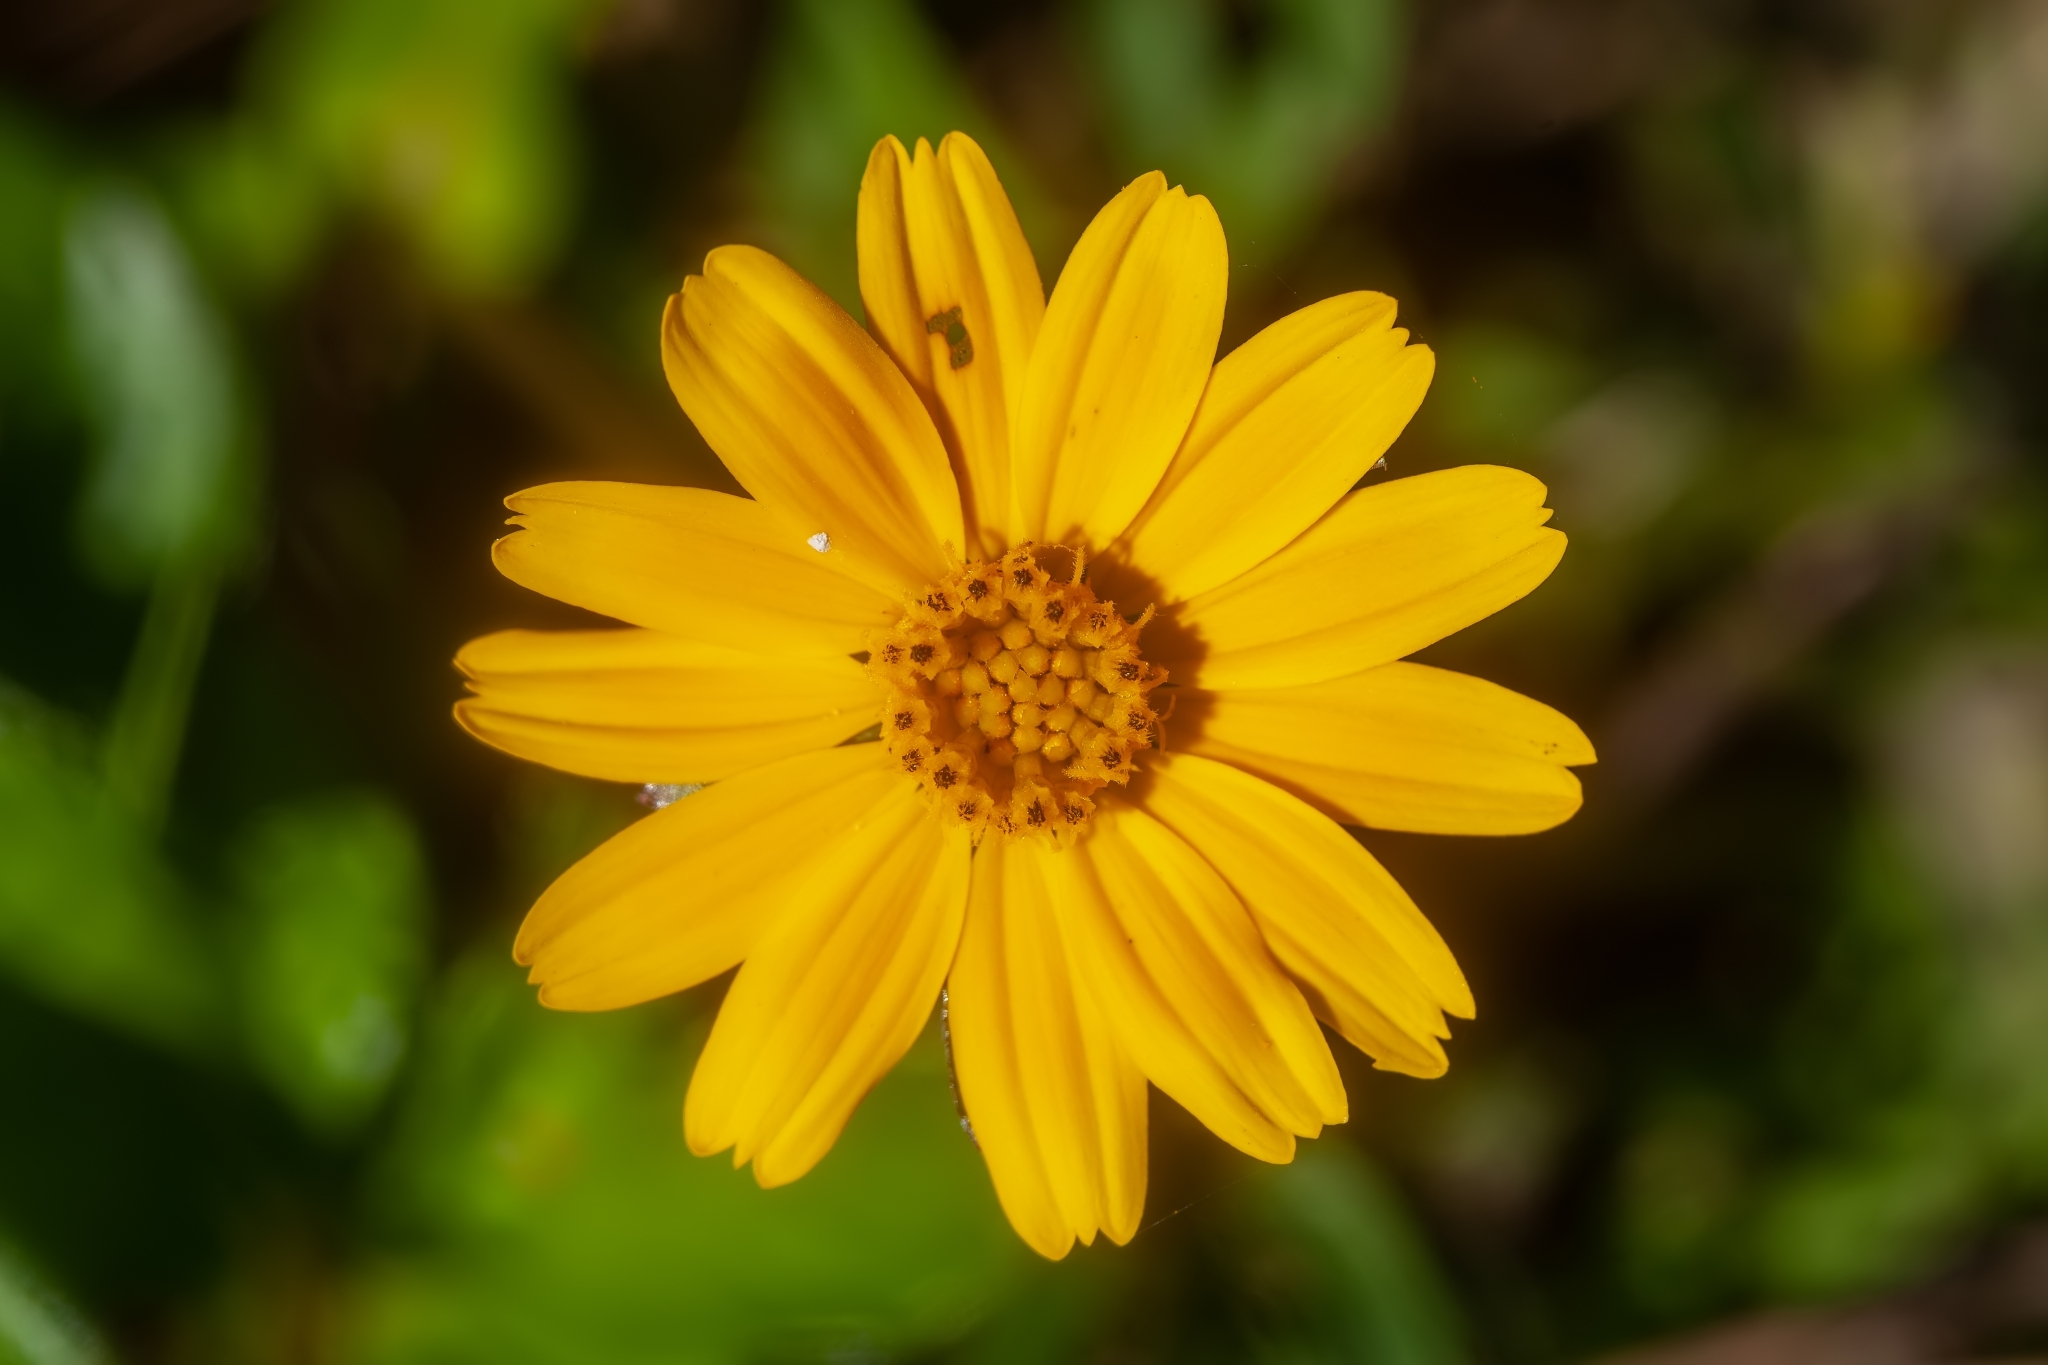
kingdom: Plantae
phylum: Tracheophyta
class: Magnoliopsida
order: Asterales
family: Asteraceae
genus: Sphagneticola
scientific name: Sphagneticola trilobata
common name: Bay biscayne creeping-oxeye
